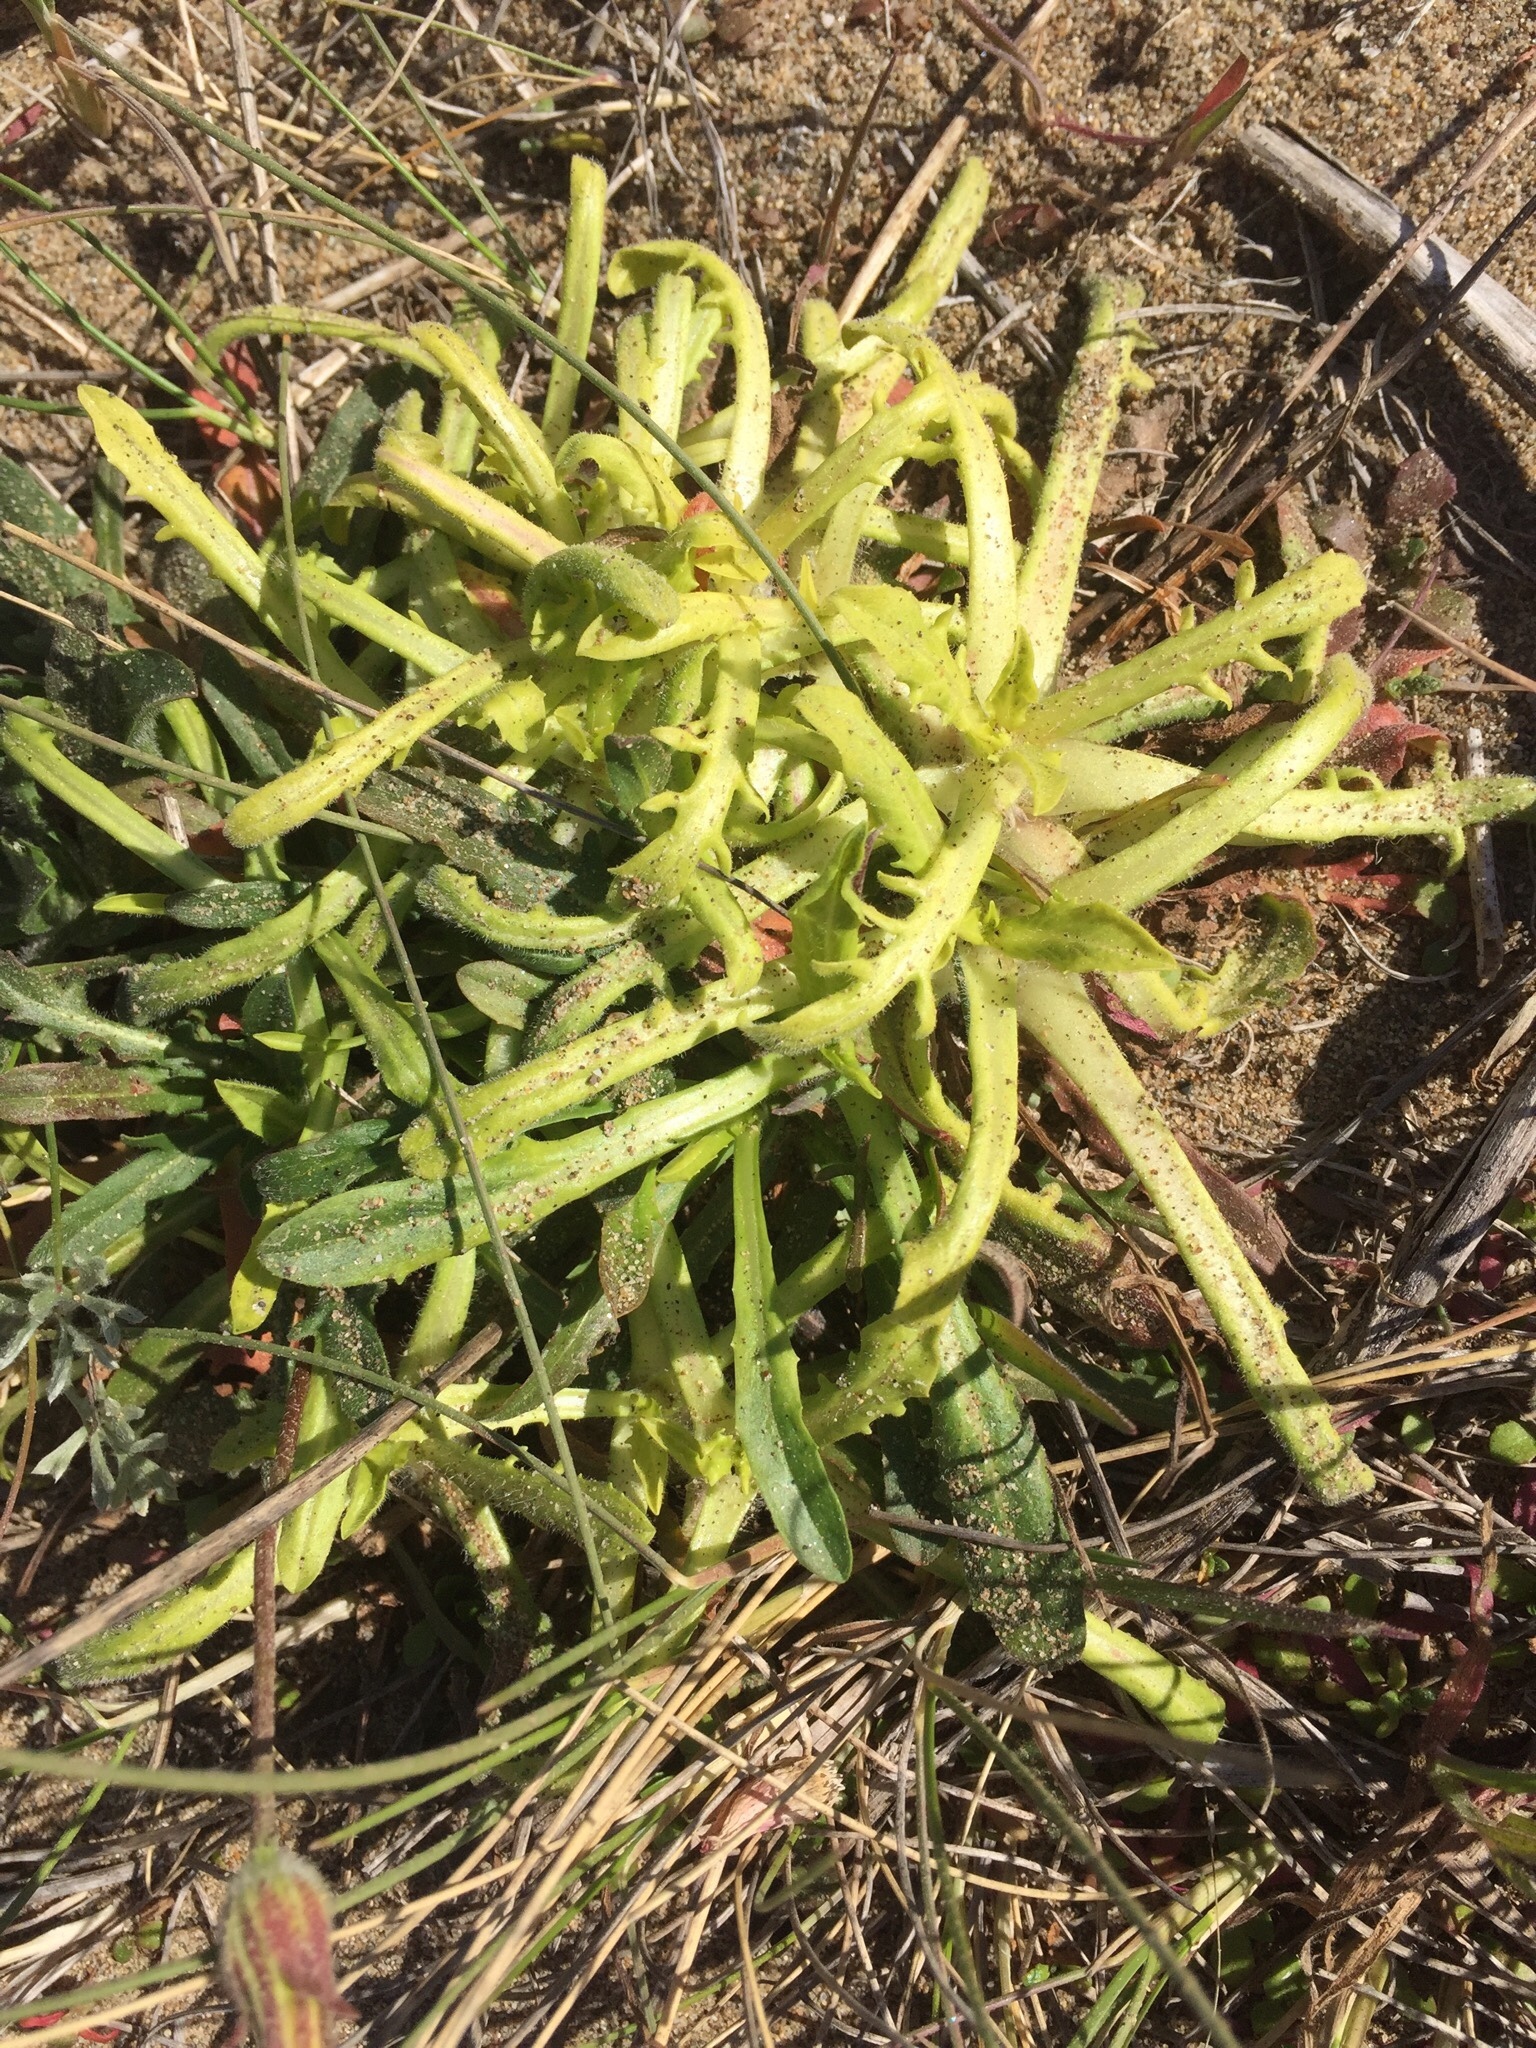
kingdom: Plantae
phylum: Tracheophyta
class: Magnoliopsida
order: Lamiales
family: Plantaginaceae
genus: Plantago
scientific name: Plantago coronopus
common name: Buck's-horn plantain
